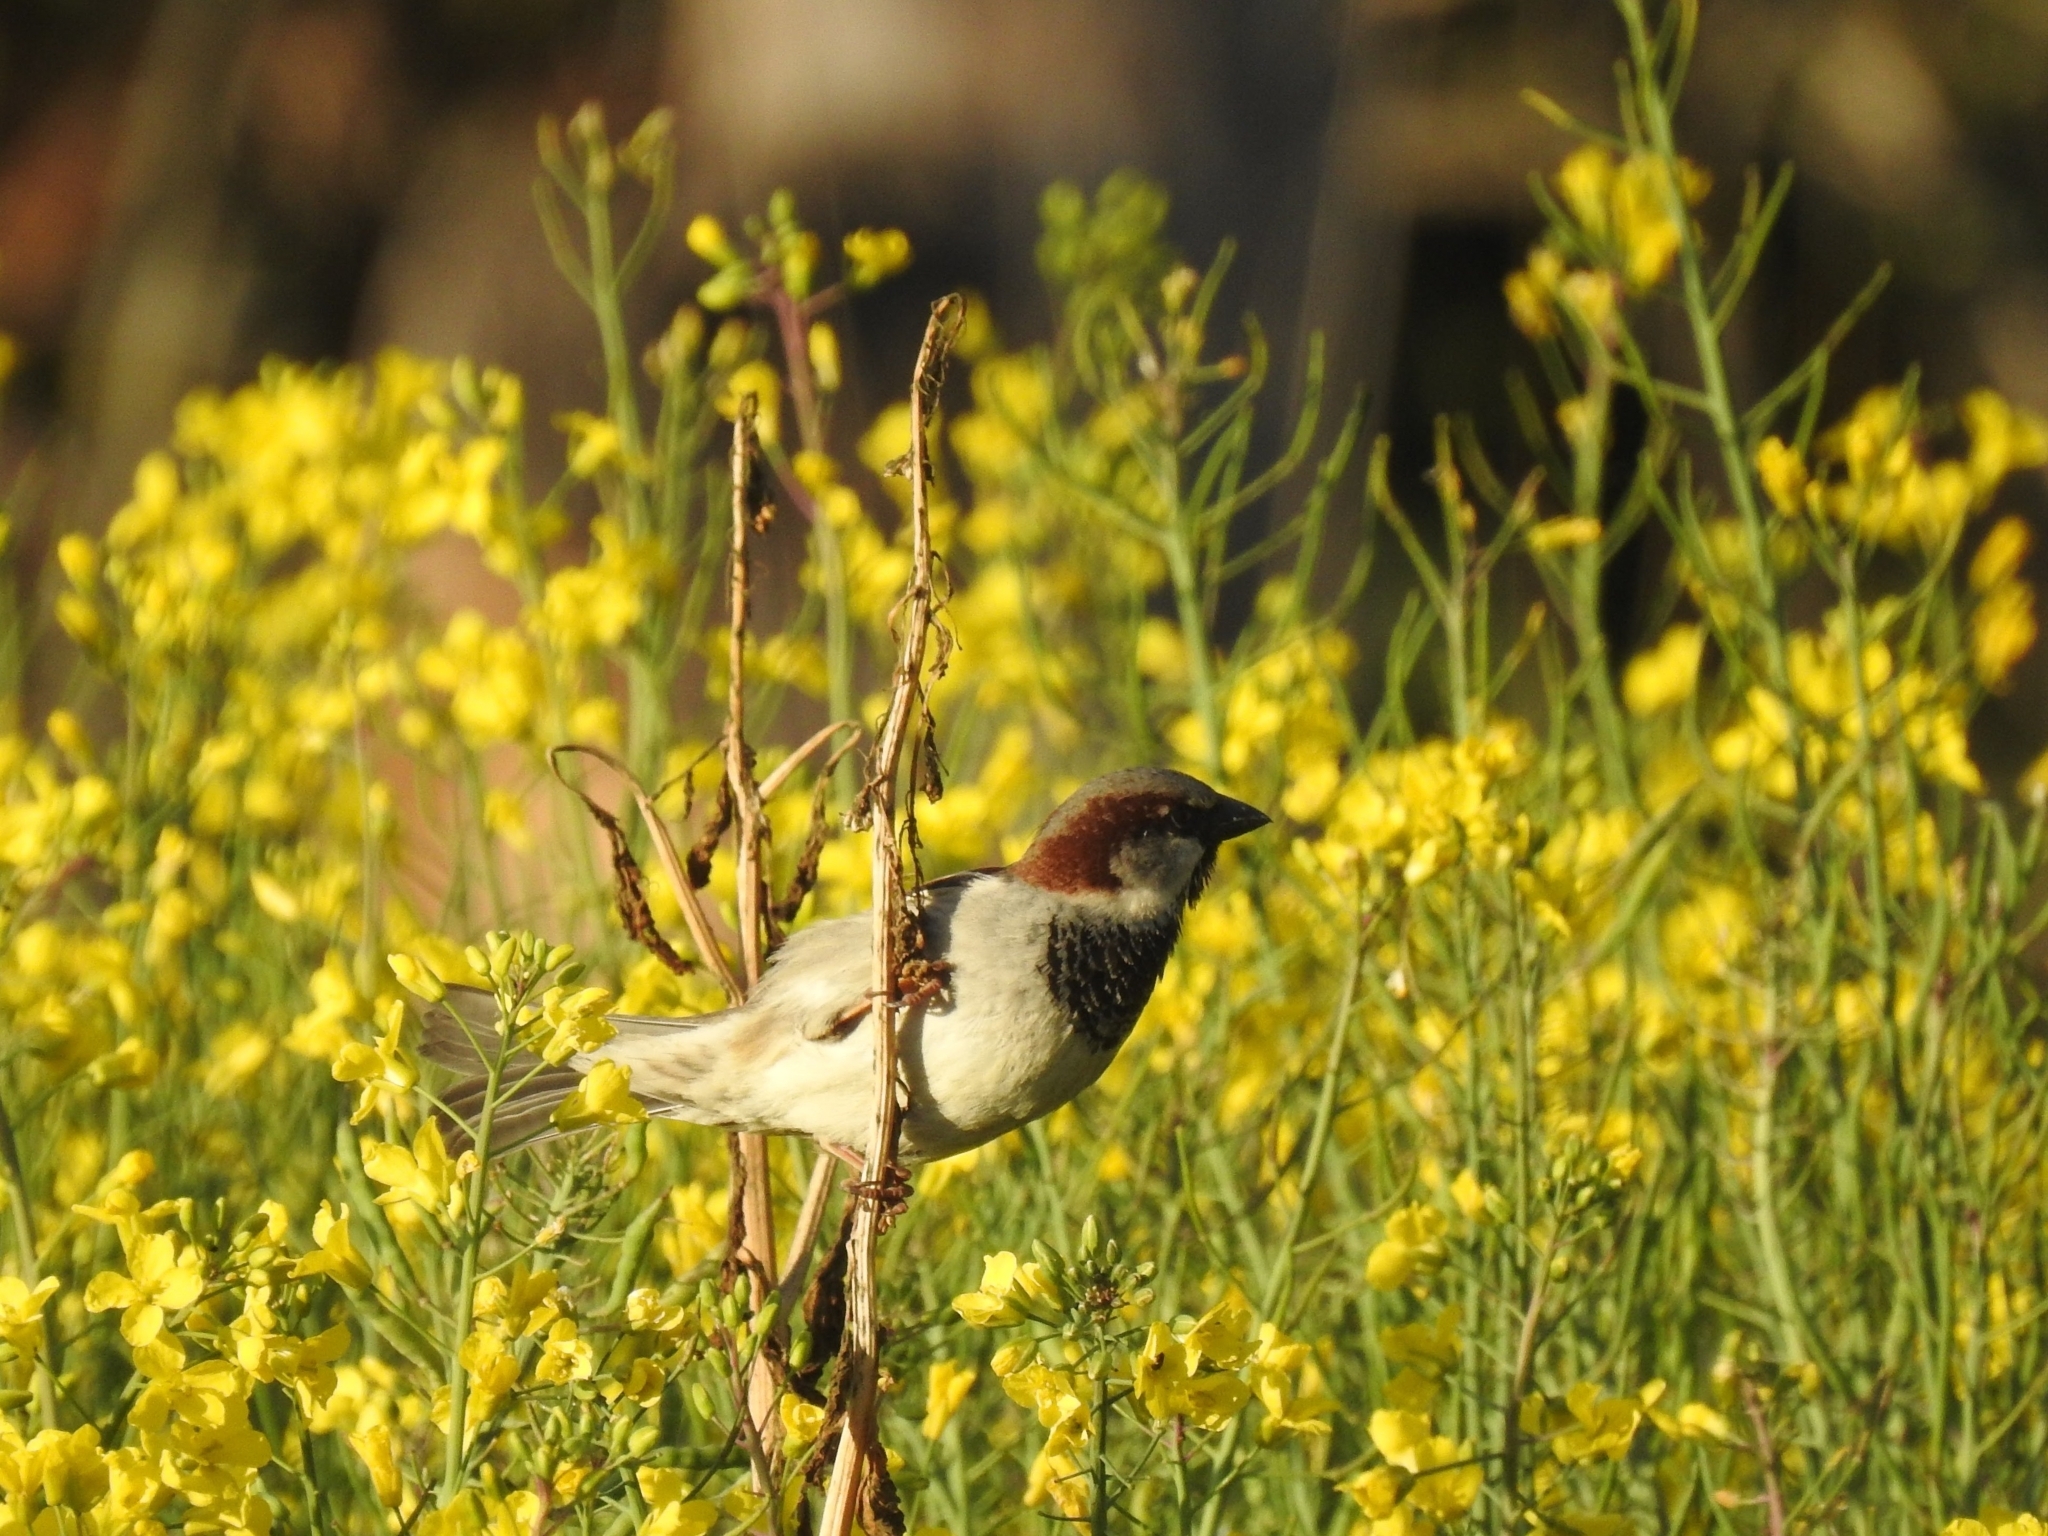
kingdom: Animalia
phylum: Chordata
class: Aves
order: Passeriformes
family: Passeridae
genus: Passer
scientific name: Passer domesticus
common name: House sparrow
